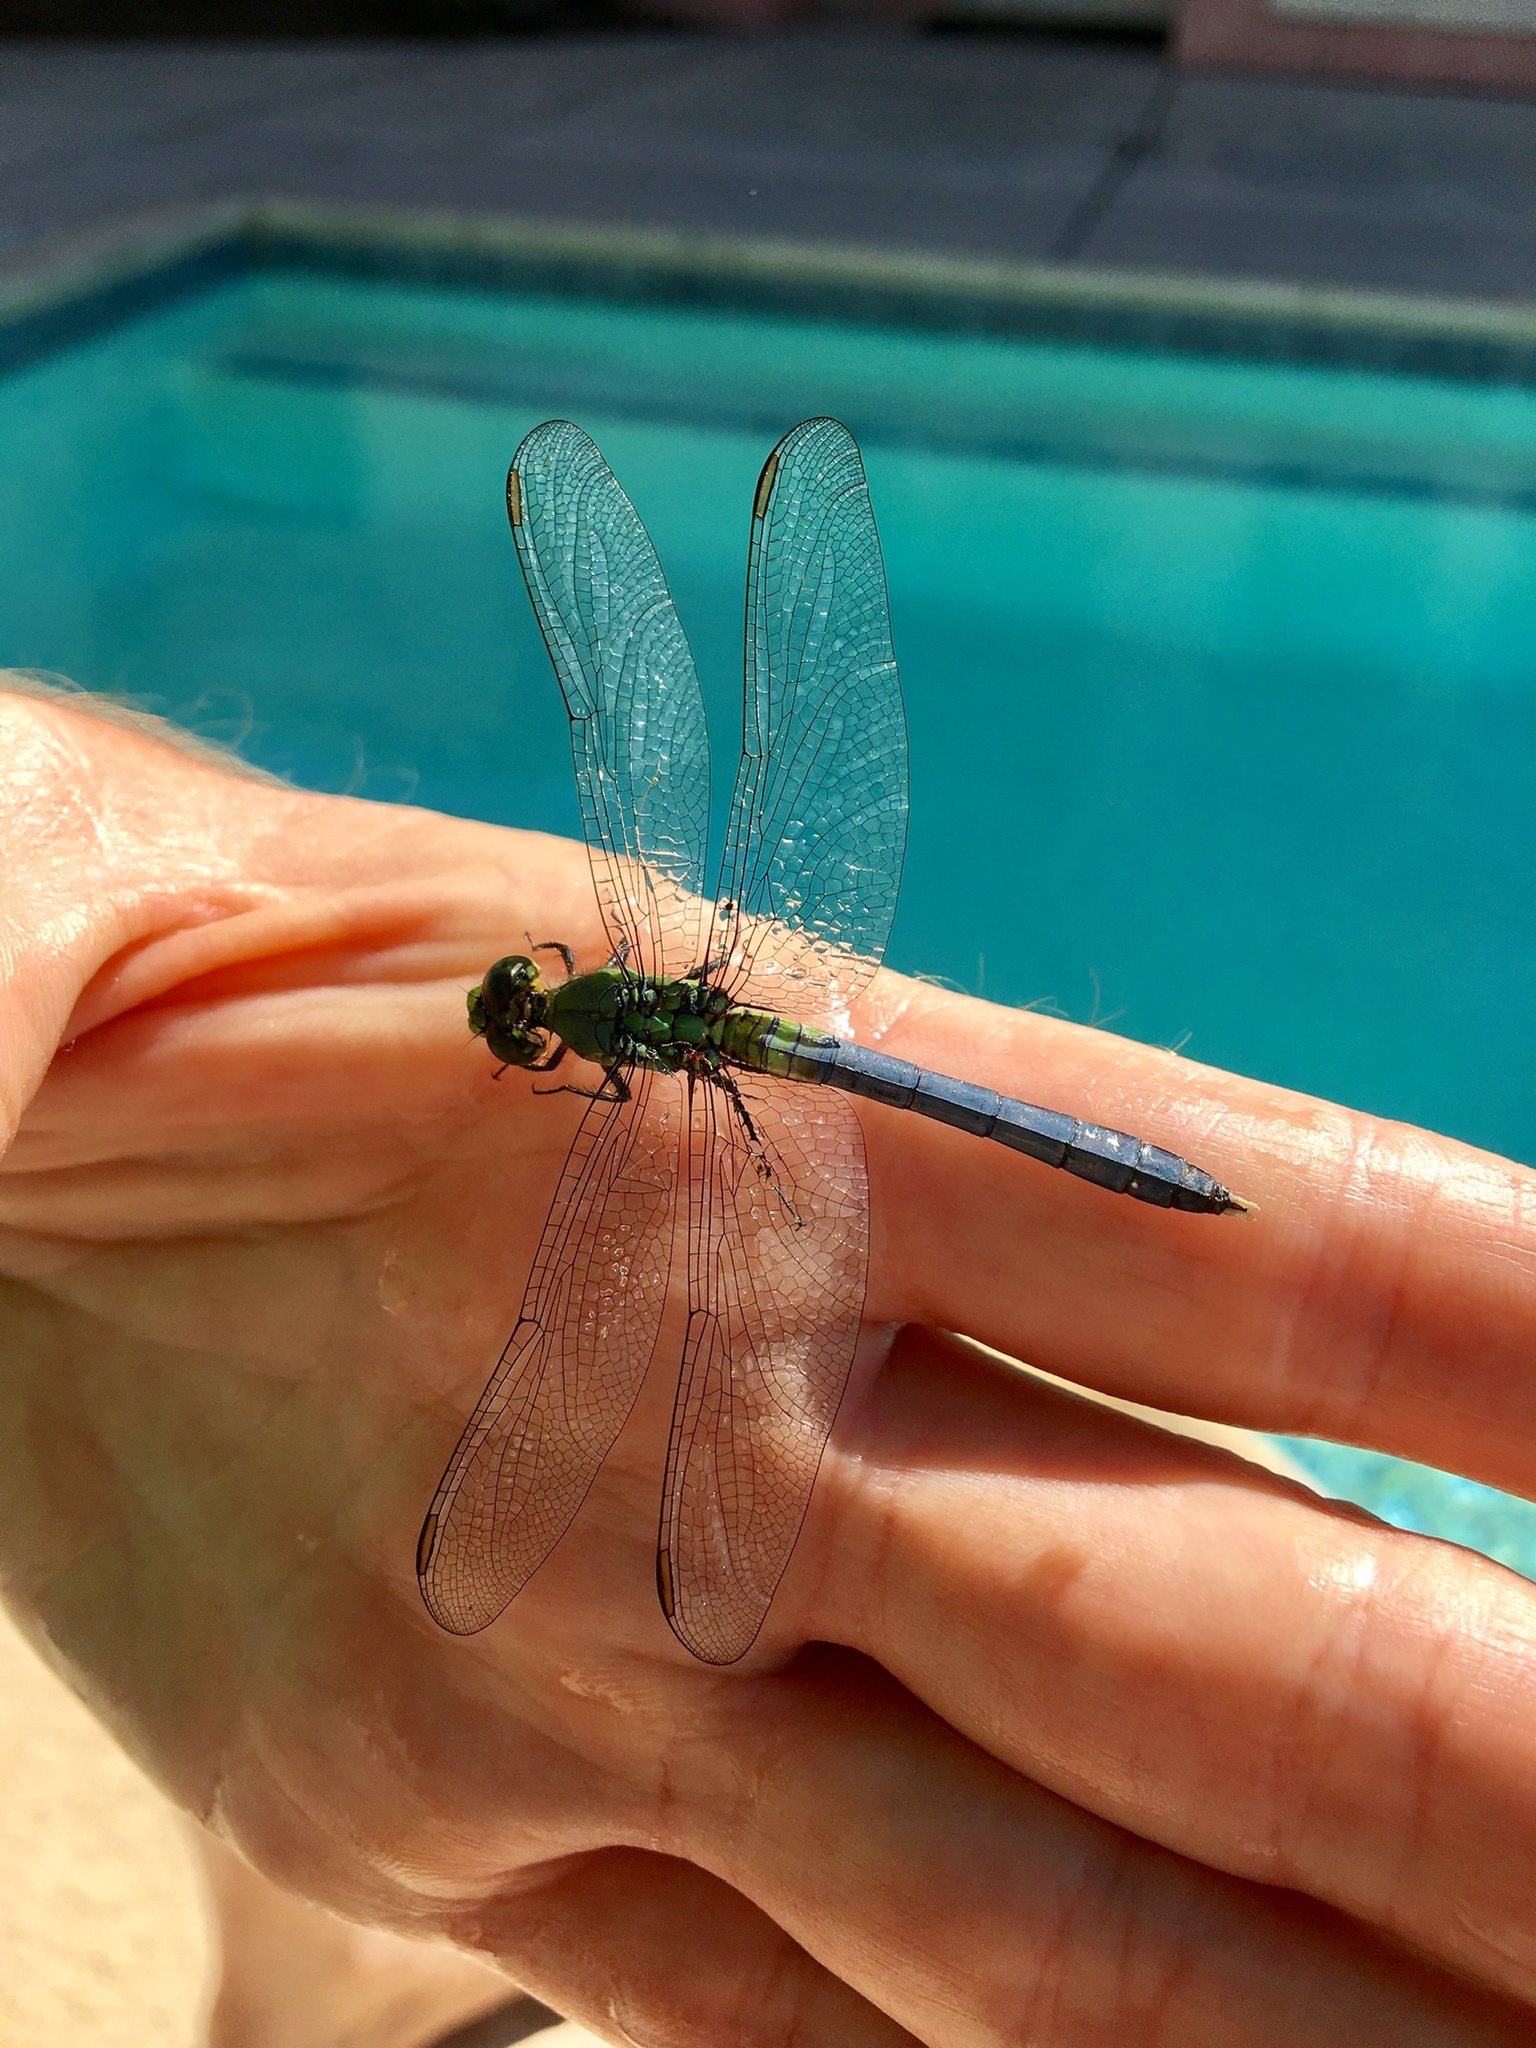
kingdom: Animalia
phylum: Arthropoda
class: Insecta
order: Odonata
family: Libellulidae
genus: Erythemis
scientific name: Erythemis simplicicollis
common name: Eastern pondhawk
